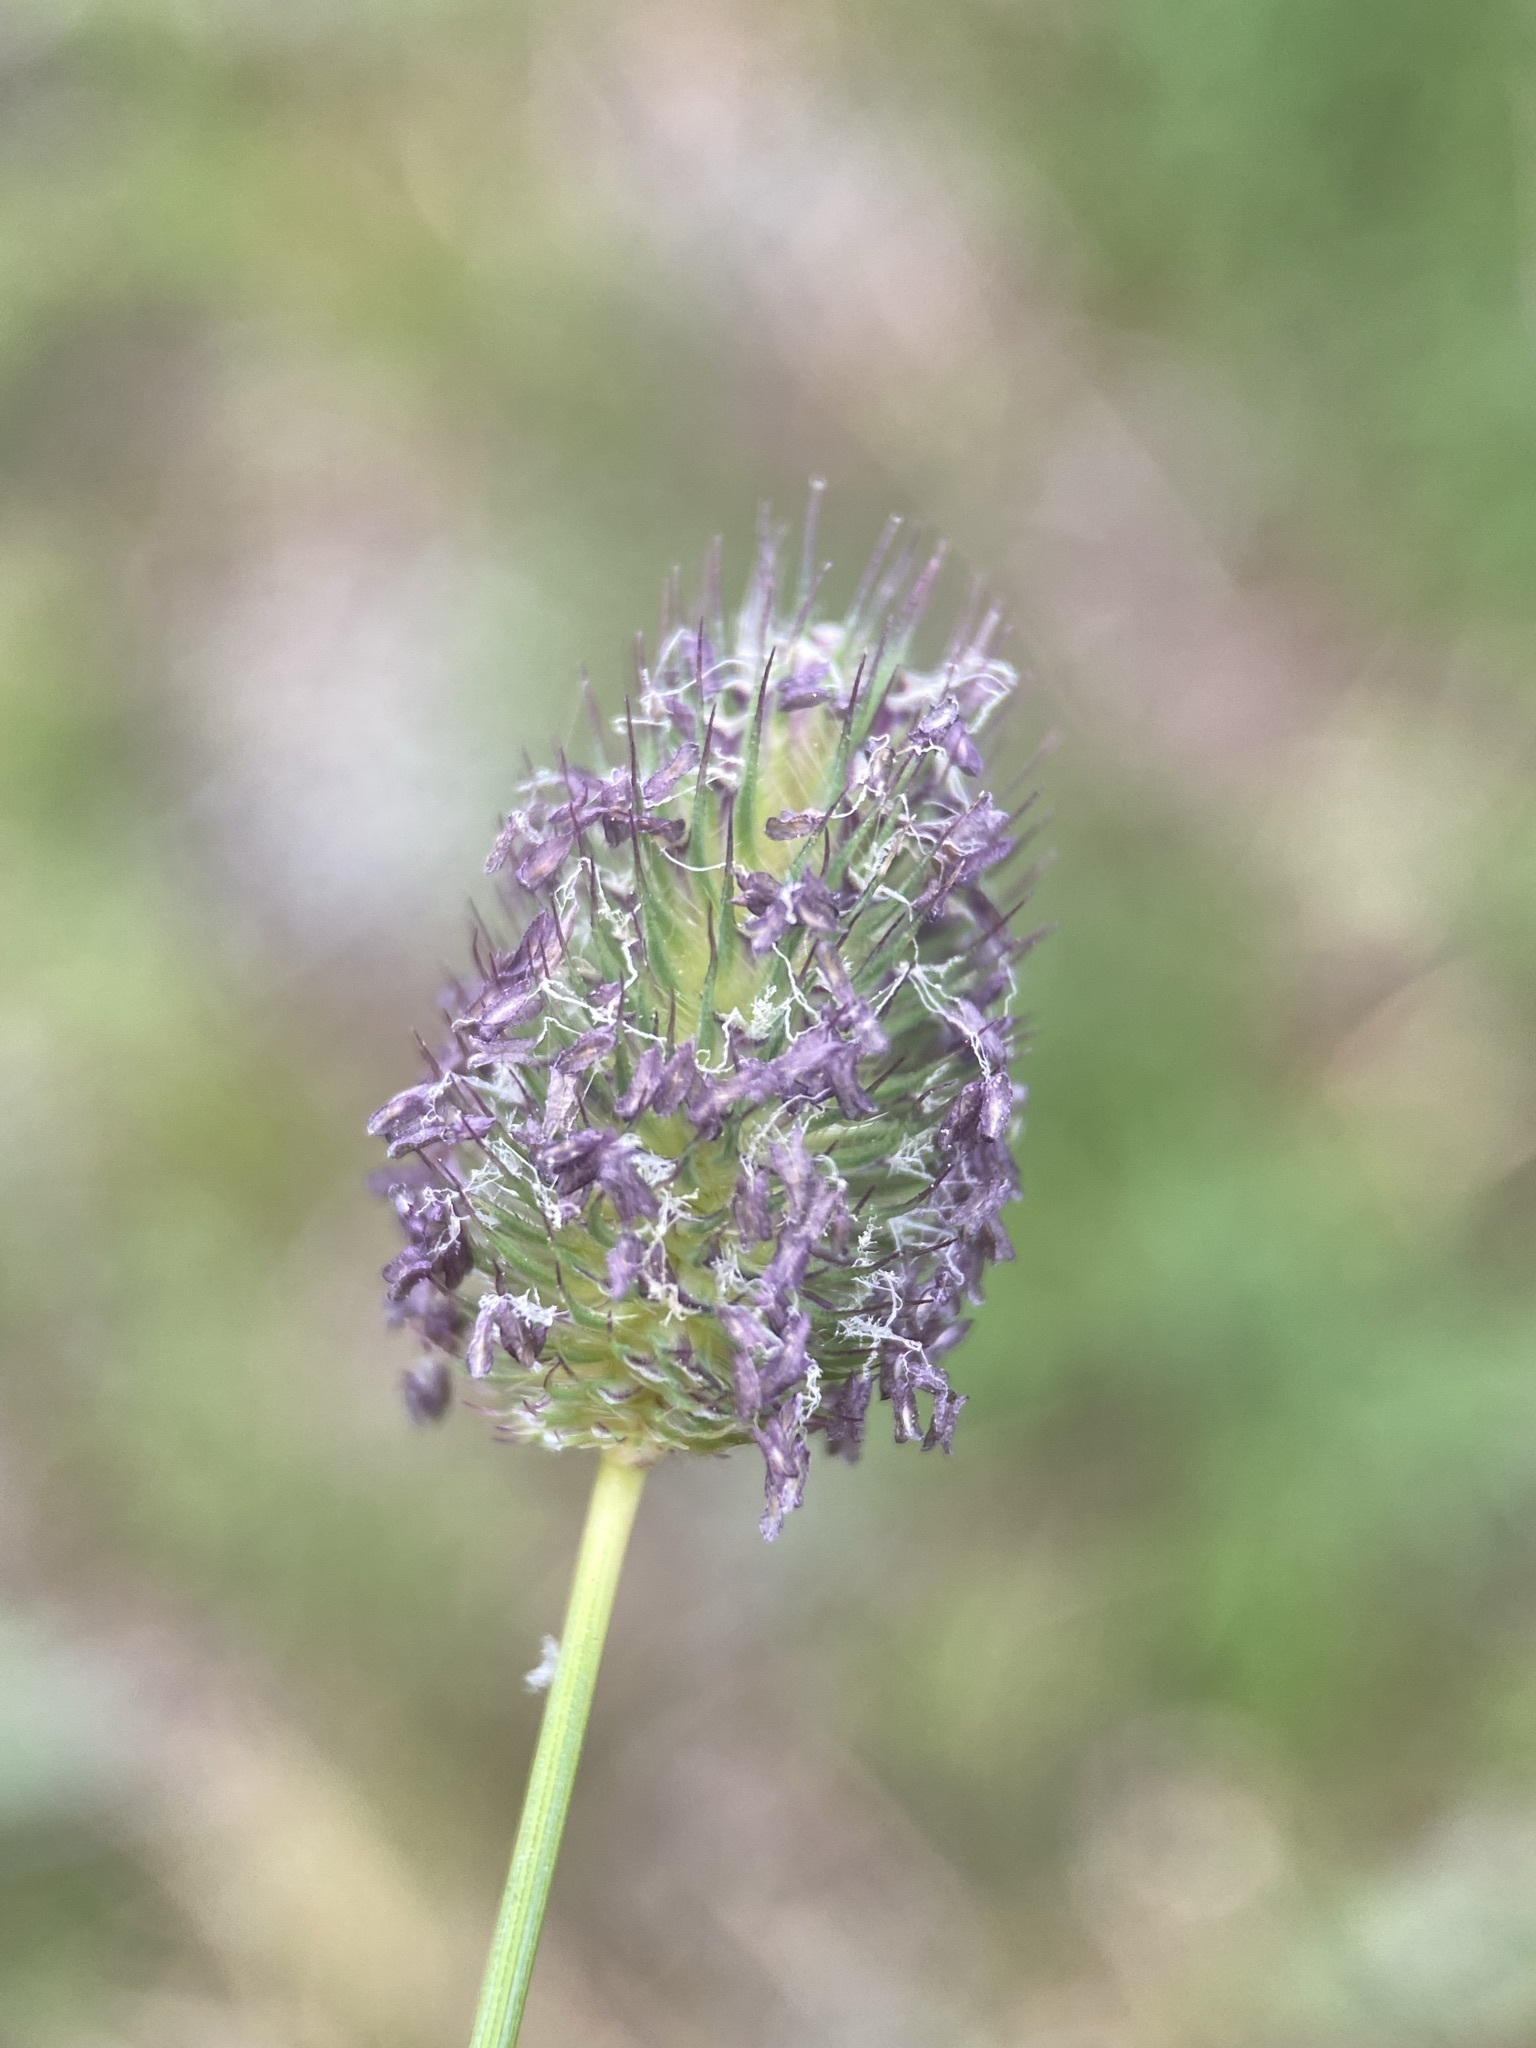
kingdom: Plantae
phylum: Tracheophyta
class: Liliopsida
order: Poales
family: Poaceae
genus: Phleum
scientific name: Phleum alpinum
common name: Alpine cat's-tail
